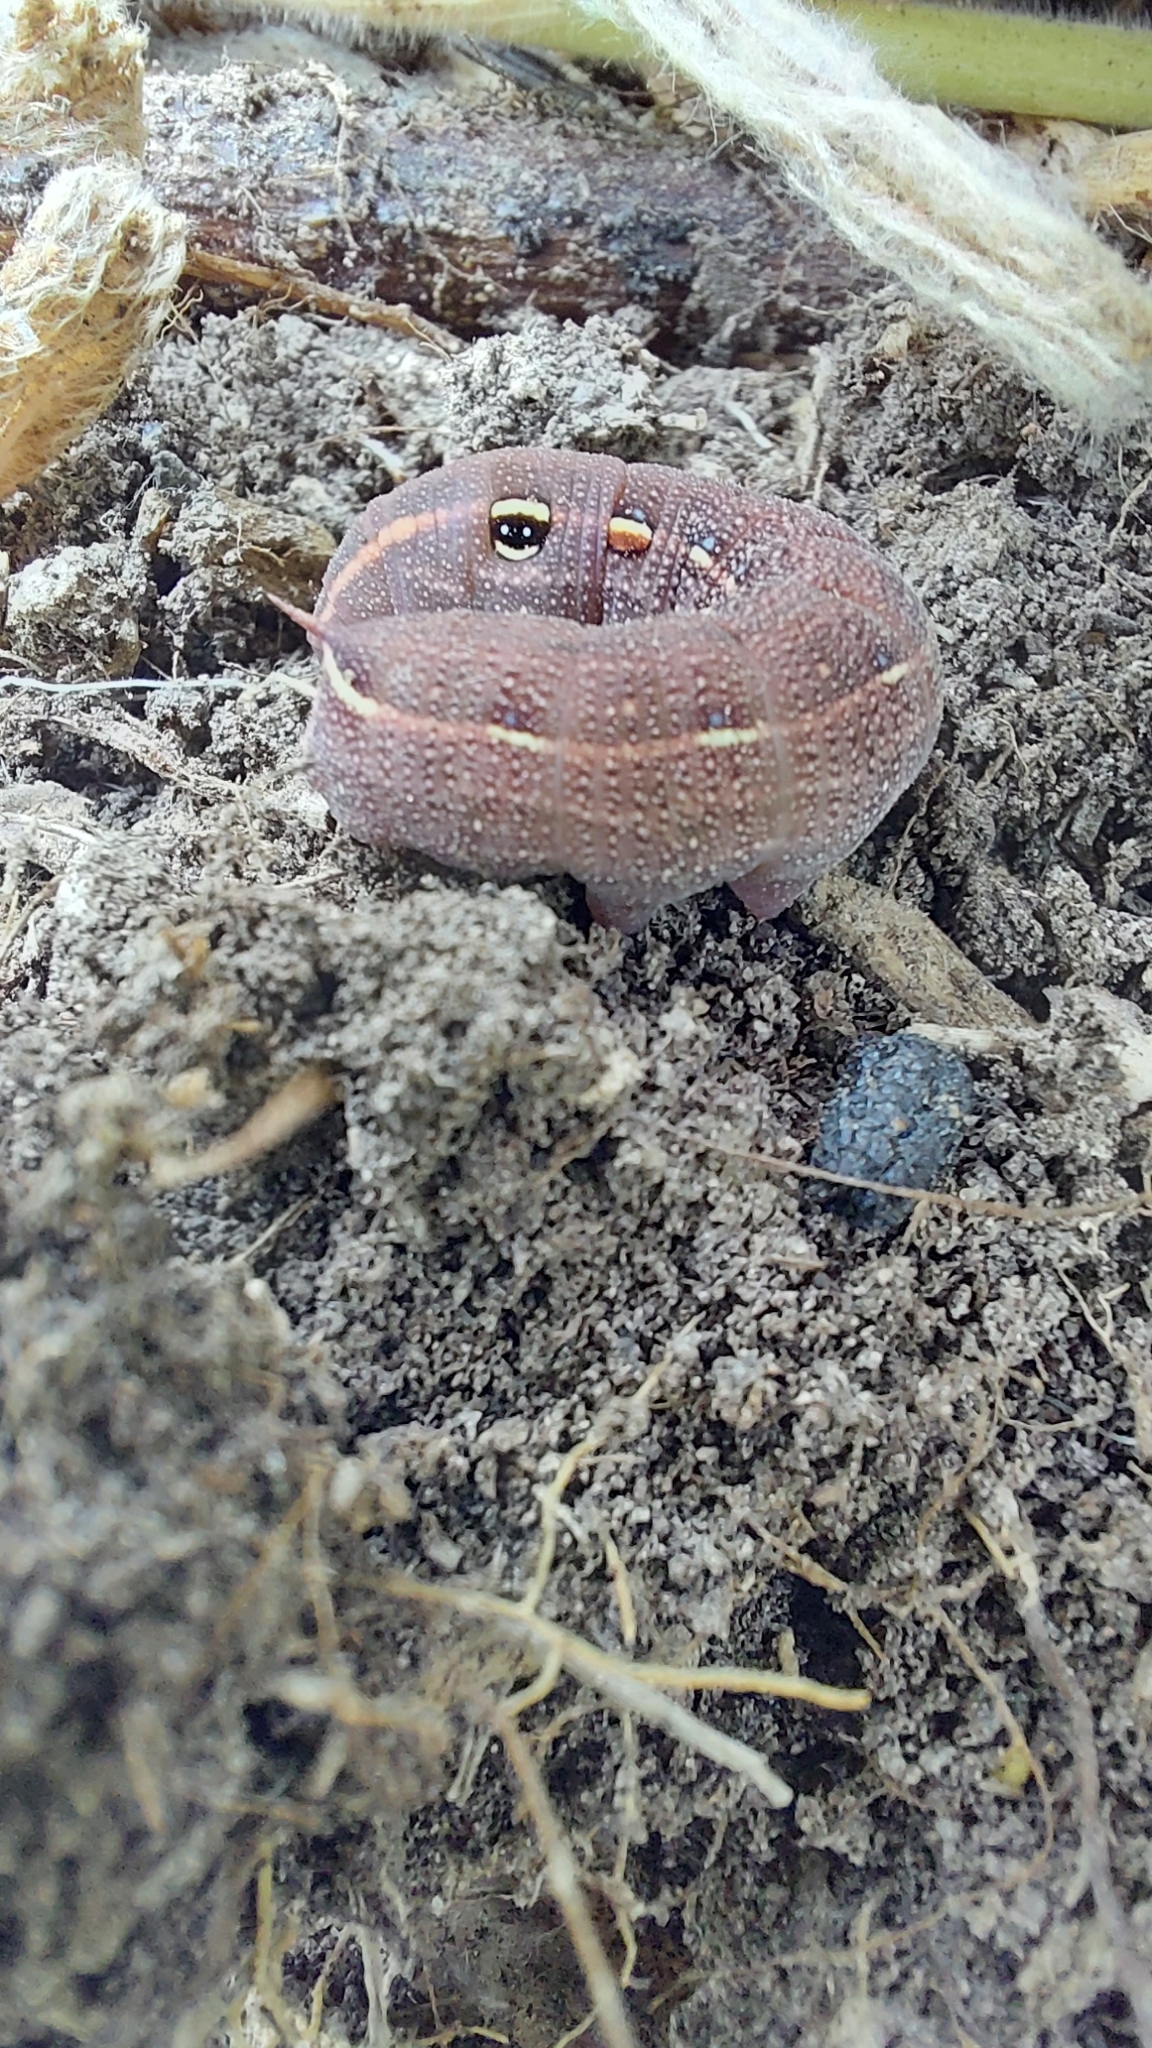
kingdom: Animalia
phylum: Arthropoda
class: Insecta
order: Lepidoptera
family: Sphingidae
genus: Hippotion
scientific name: Hippotion scrofa
